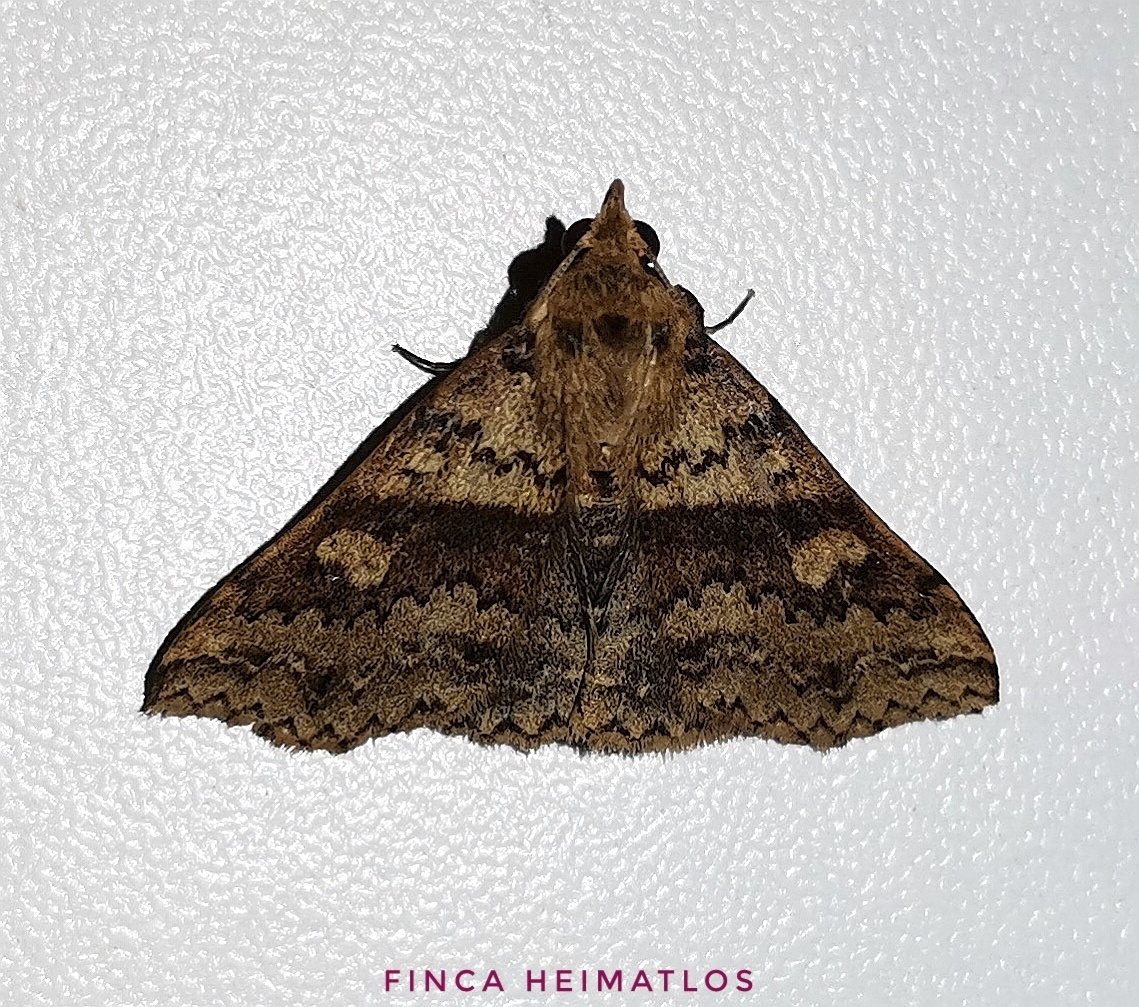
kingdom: Animalia
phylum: Arthropoda
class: Insecta
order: Lepidoptera
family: Erebidae
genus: Renia
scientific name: Renia vinasalis
